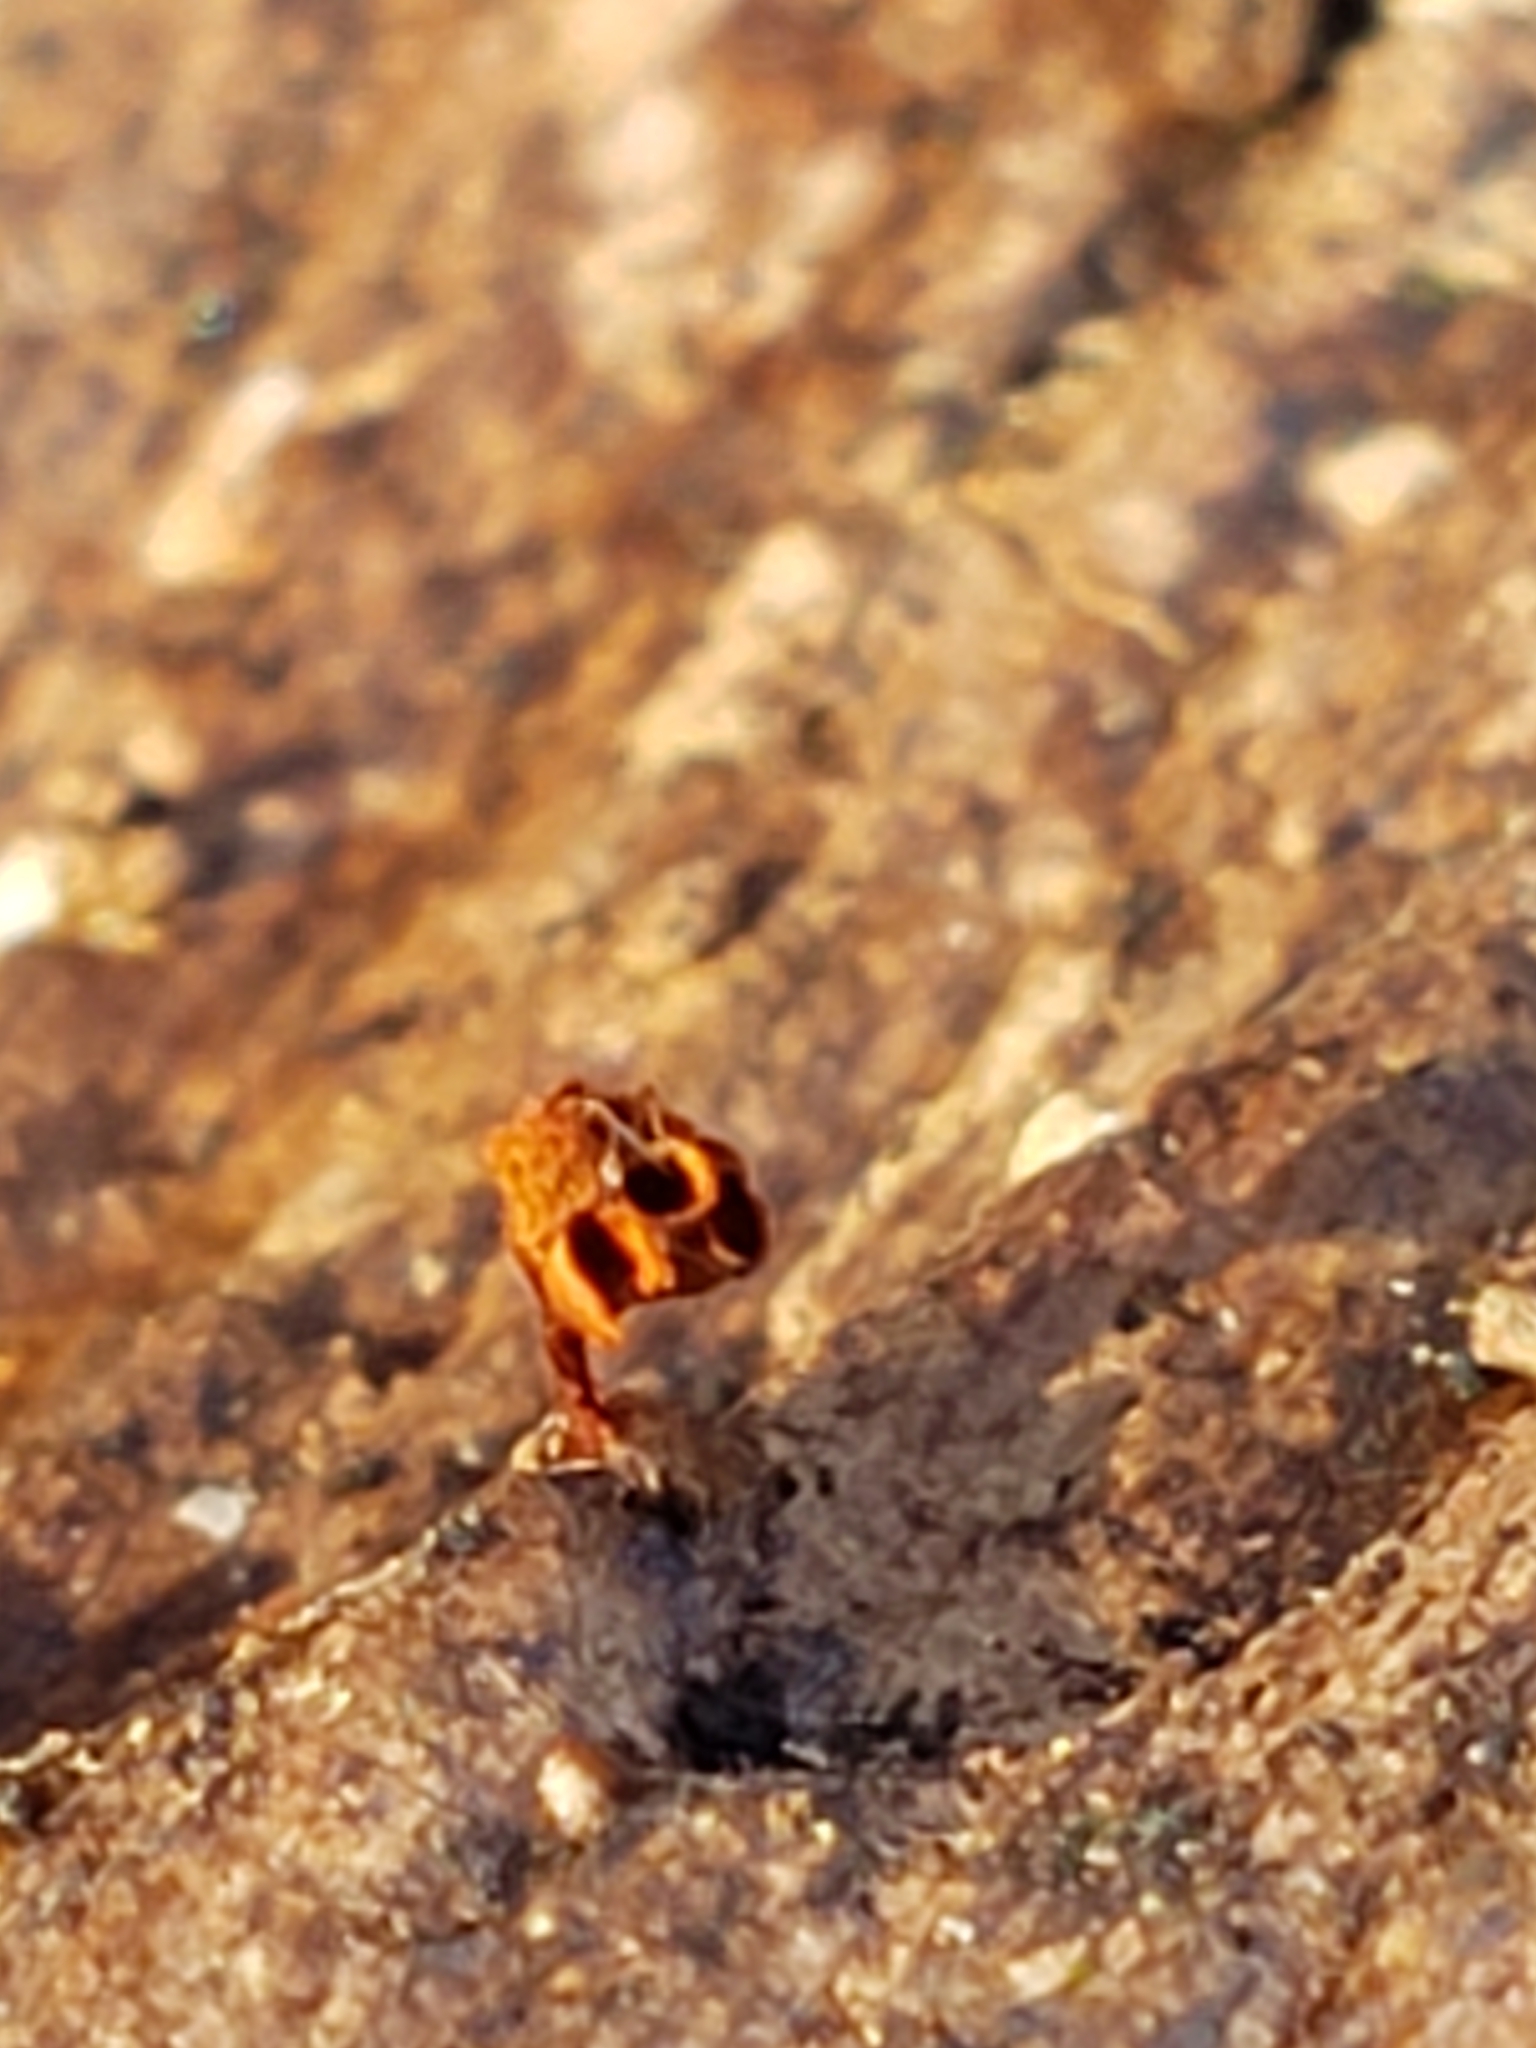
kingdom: Protozoa
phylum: Mycetozoa
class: Myxomycetes
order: Trichiales
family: Trichiaceae
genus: Metatrichia
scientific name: Metatrichia vesparia
